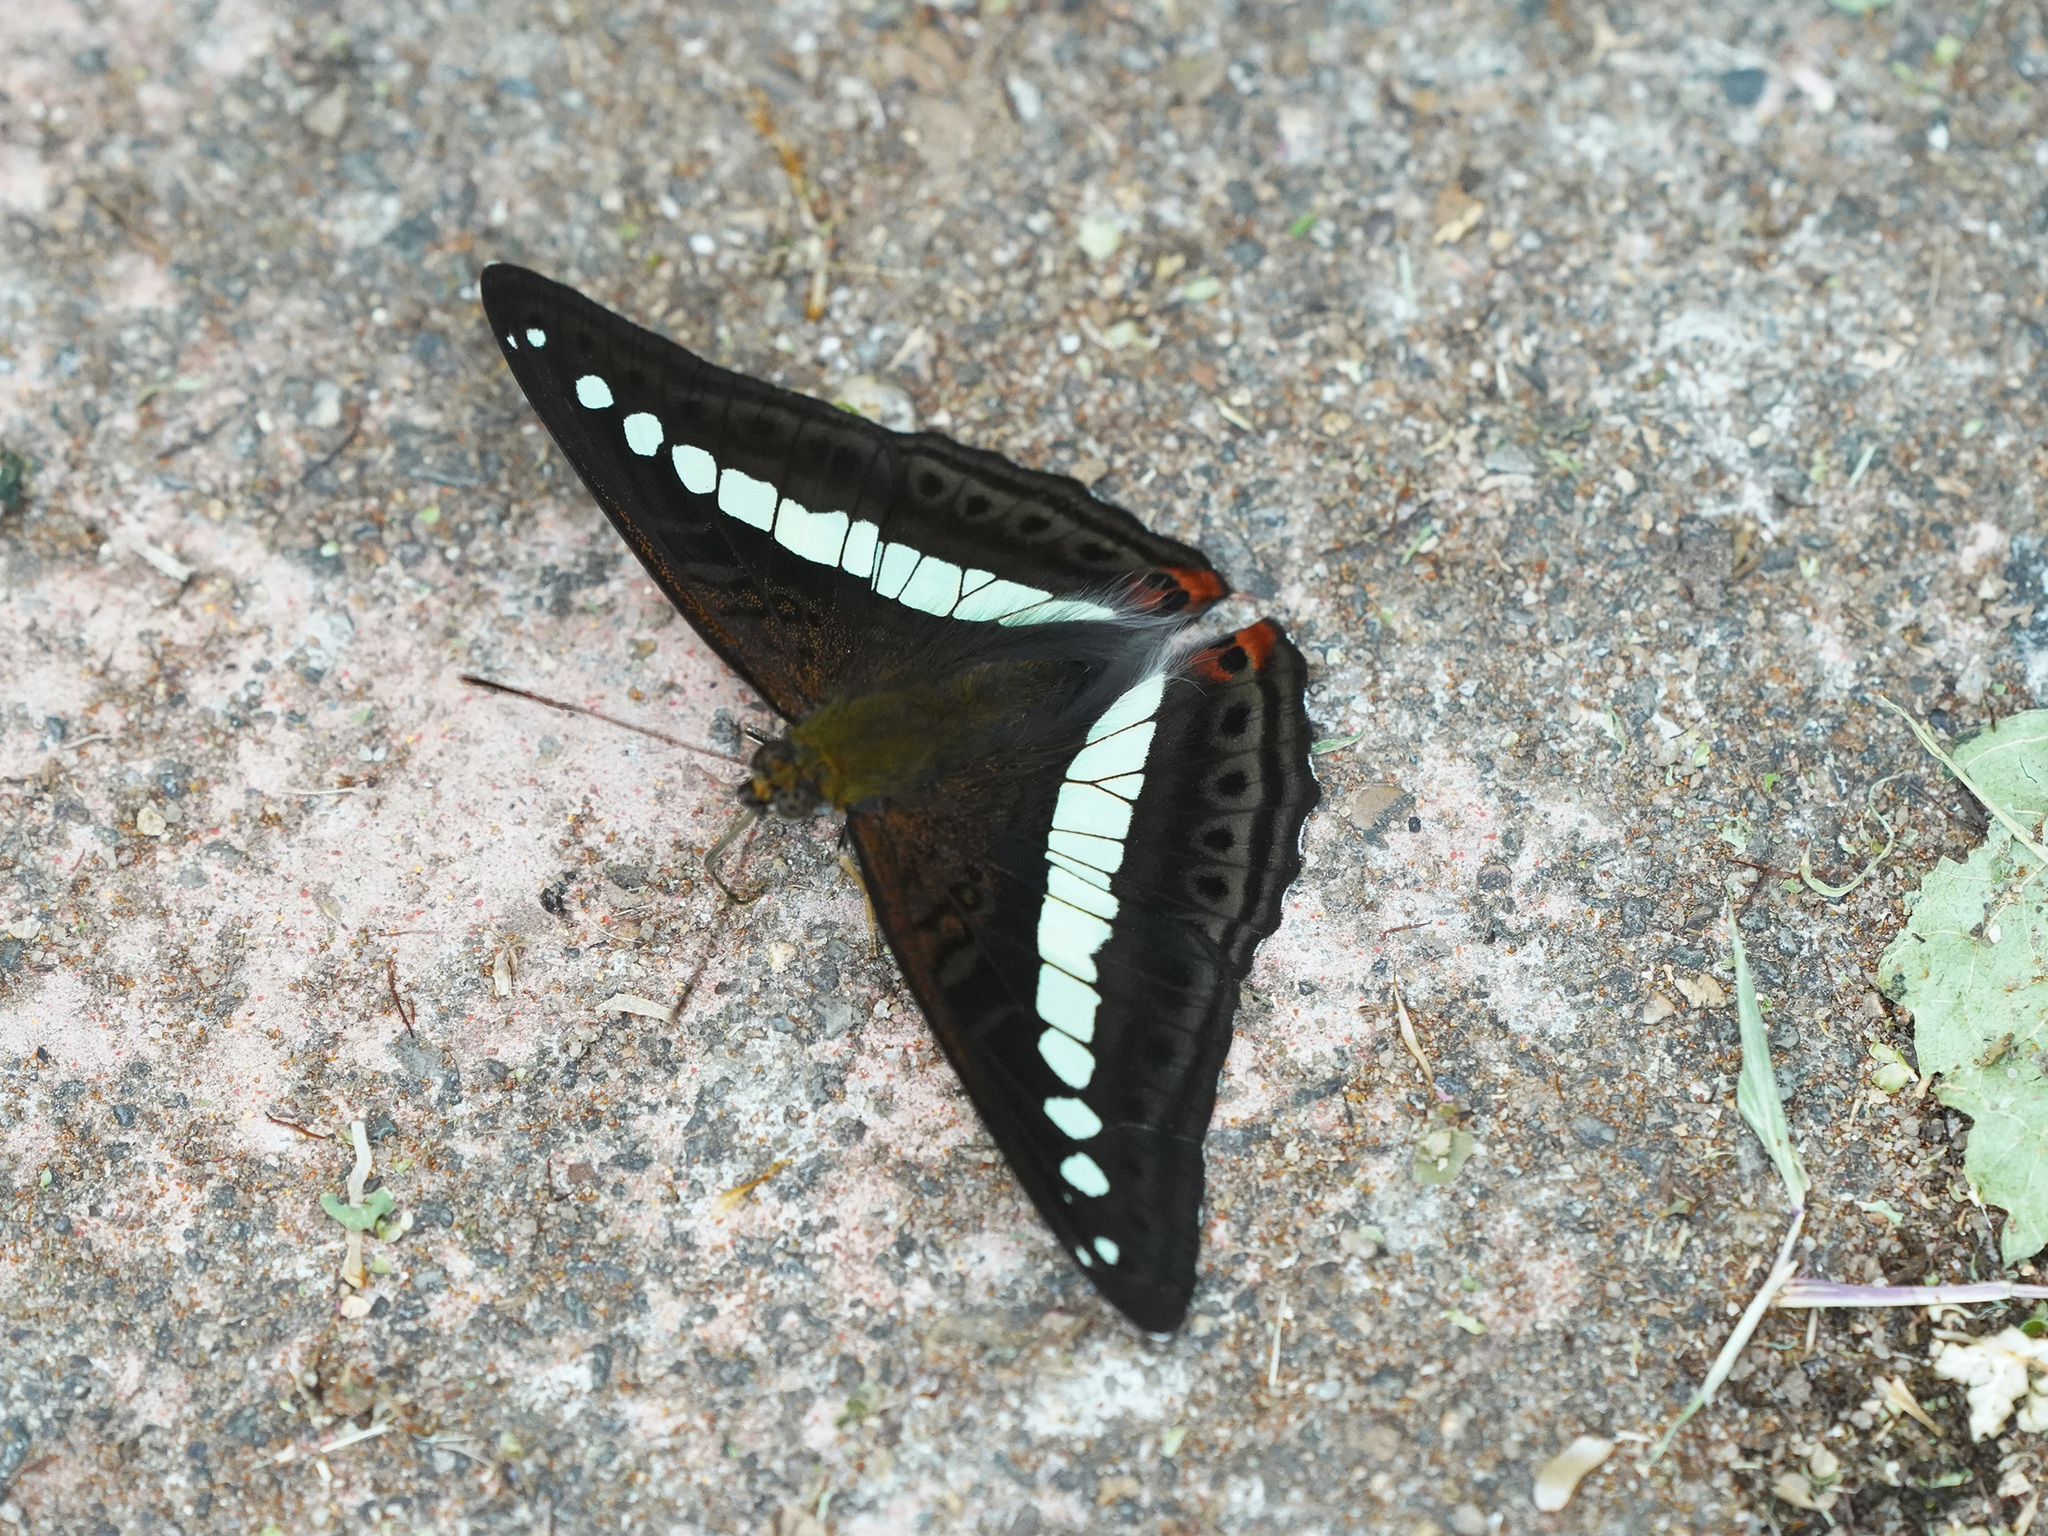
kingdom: Animalia
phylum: Arthropoda
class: Insecta
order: Lepidoptera
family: Nymphalidae
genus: Limenitis
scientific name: Limenitis Sumalia daraxa
